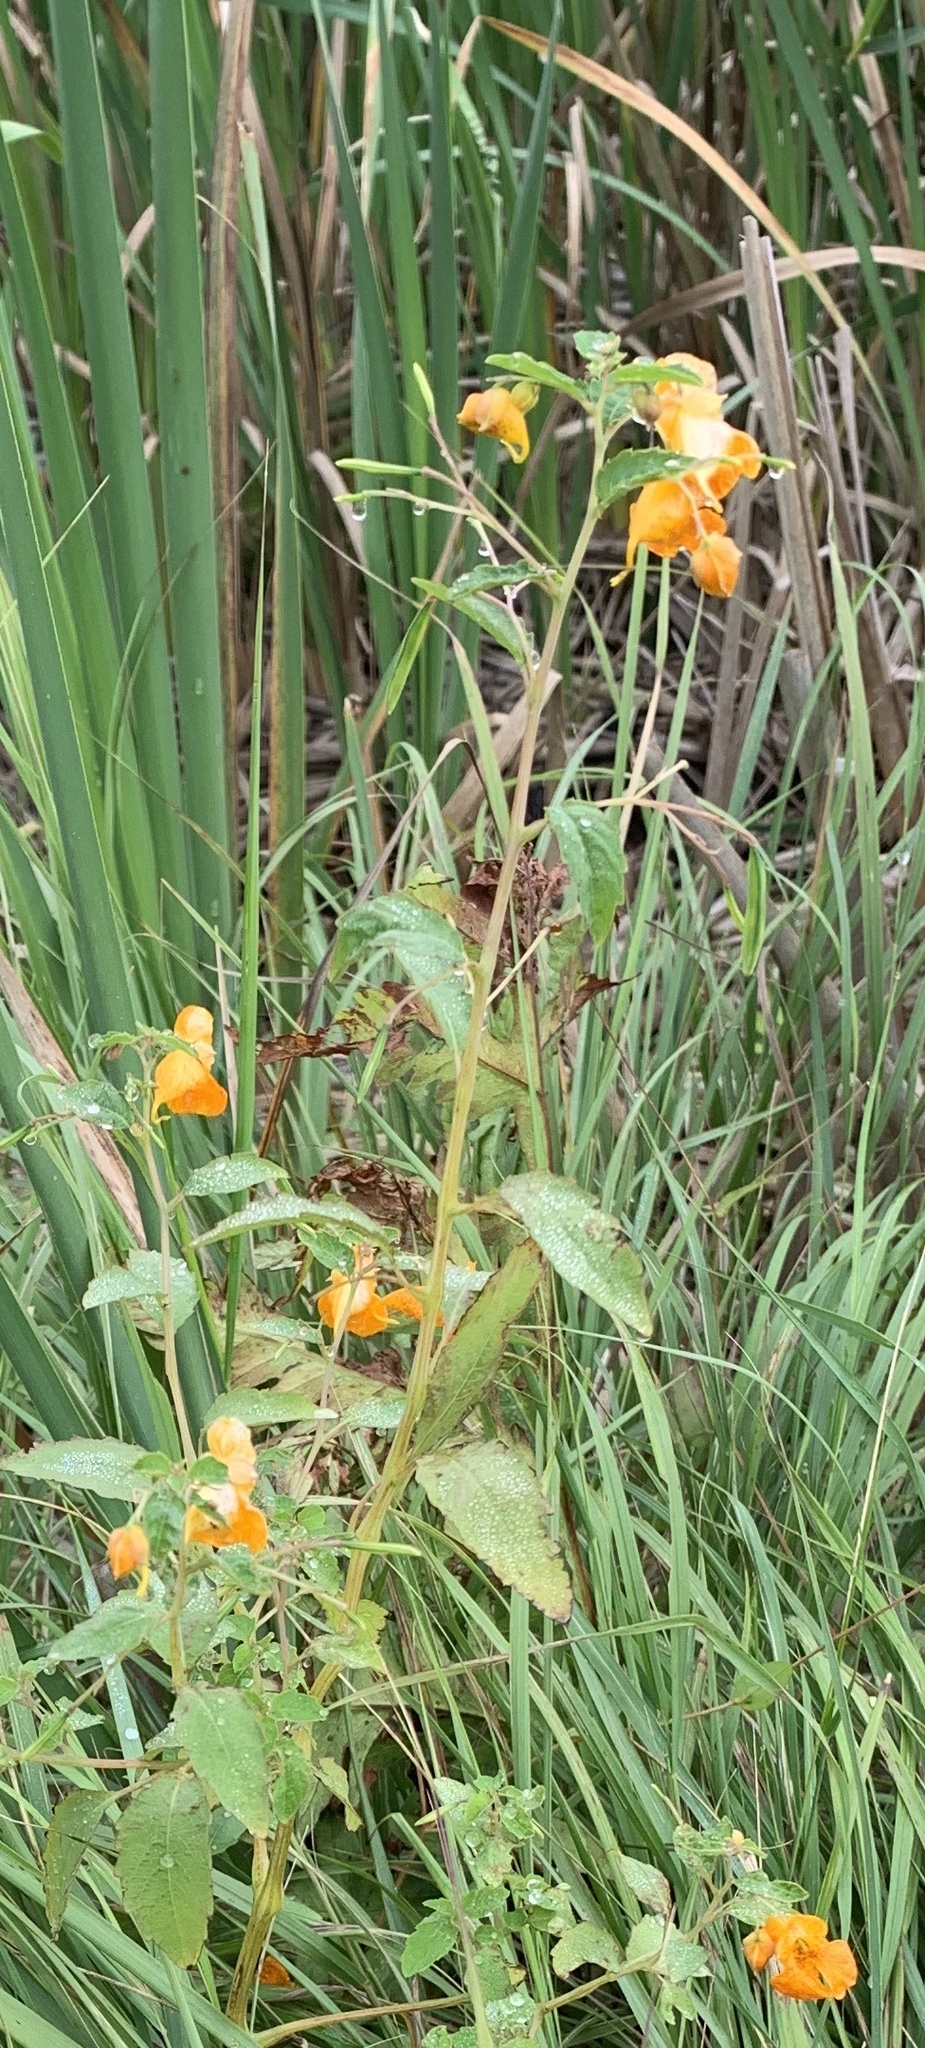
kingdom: Plantae
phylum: Tracheophyta
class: Magnoliopsida
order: Ericales
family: Balsaminaceae
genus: Impatiens
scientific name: Impatiens capensis
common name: Orange balsam
